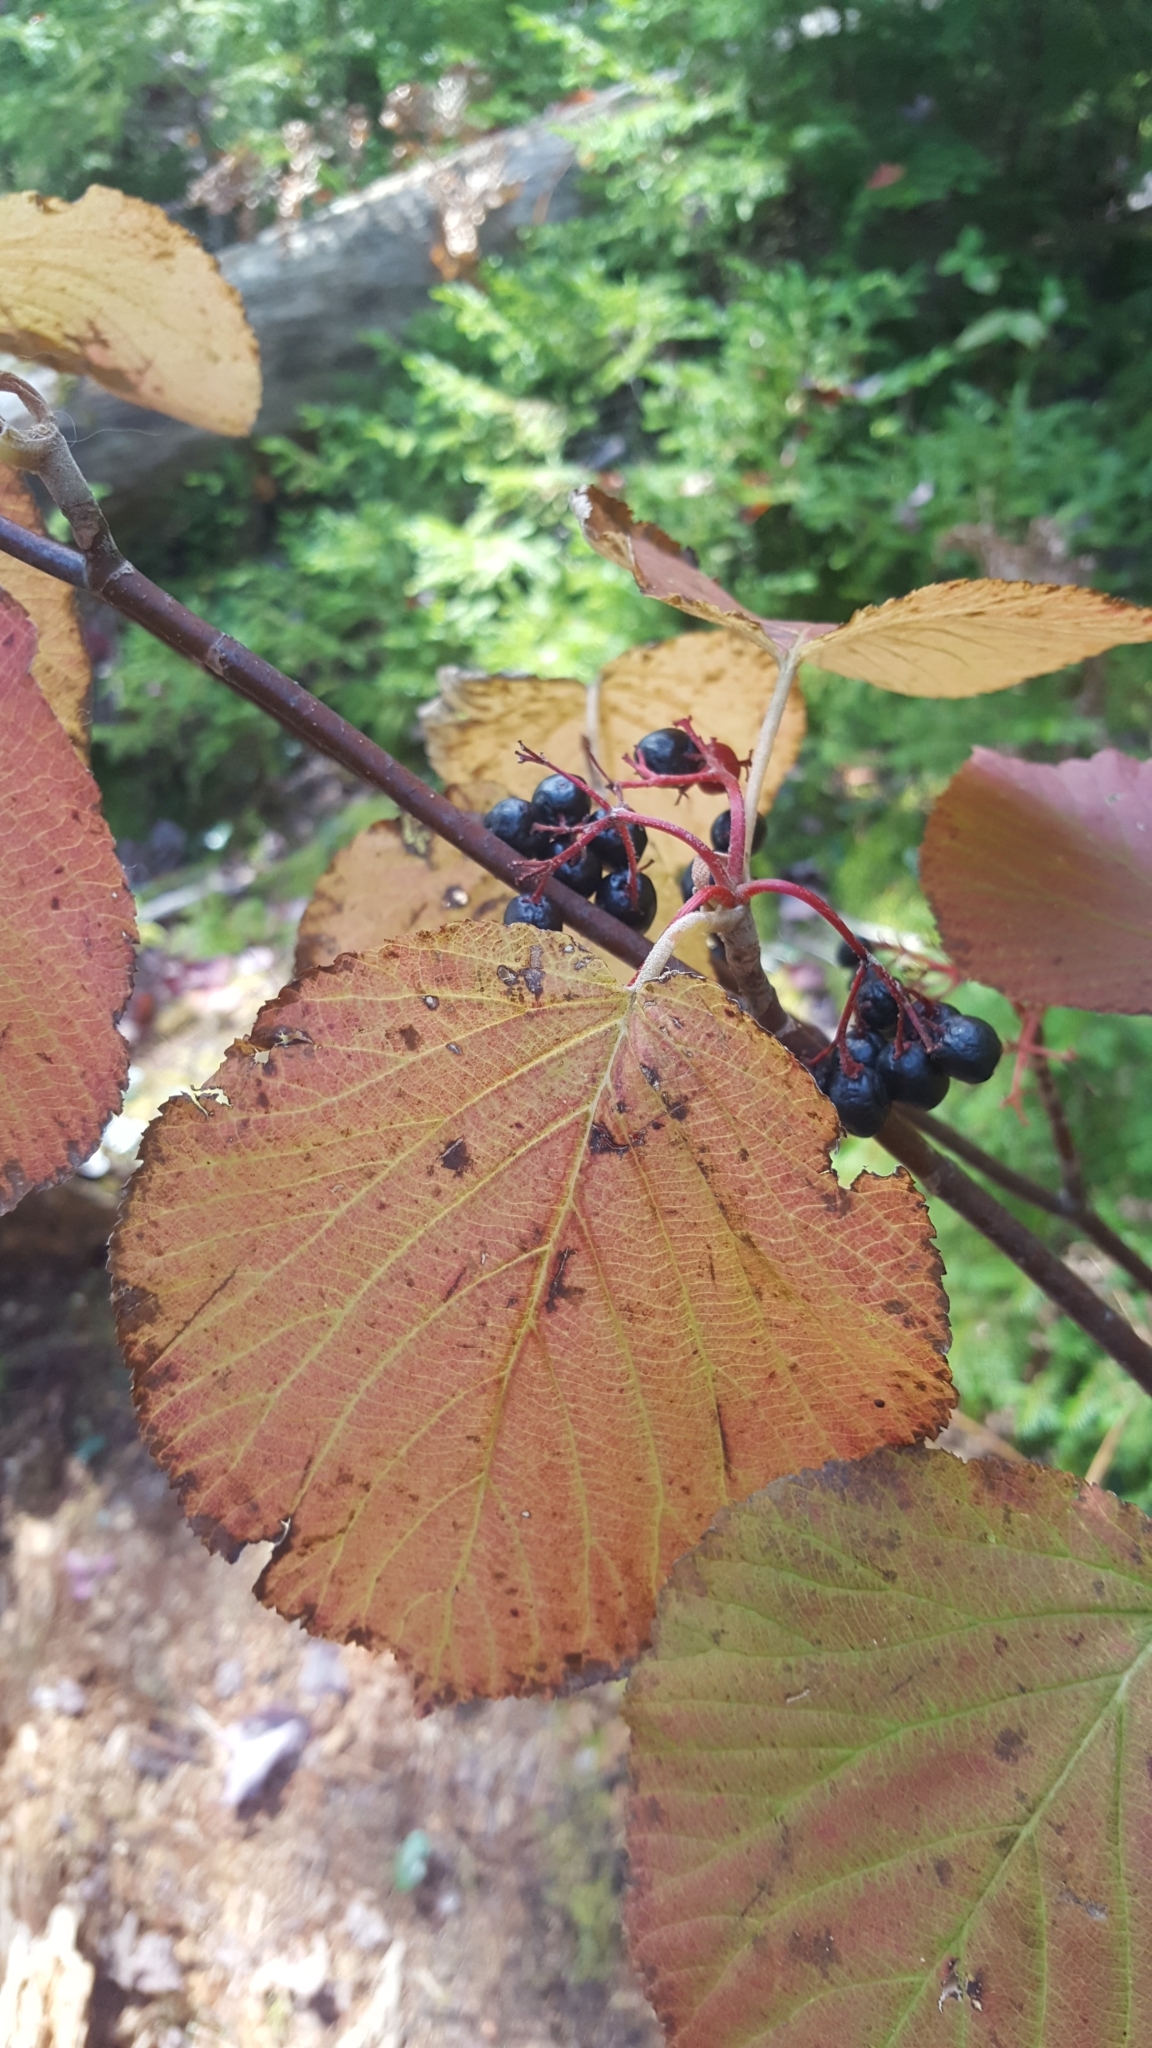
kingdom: Plantae
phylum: Tracheophyta
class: Magnoliopsida
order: Dipsacales
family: Viburnaceae
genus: Viburnum
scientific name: Viburnum lantanoides
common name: Hobblebush
